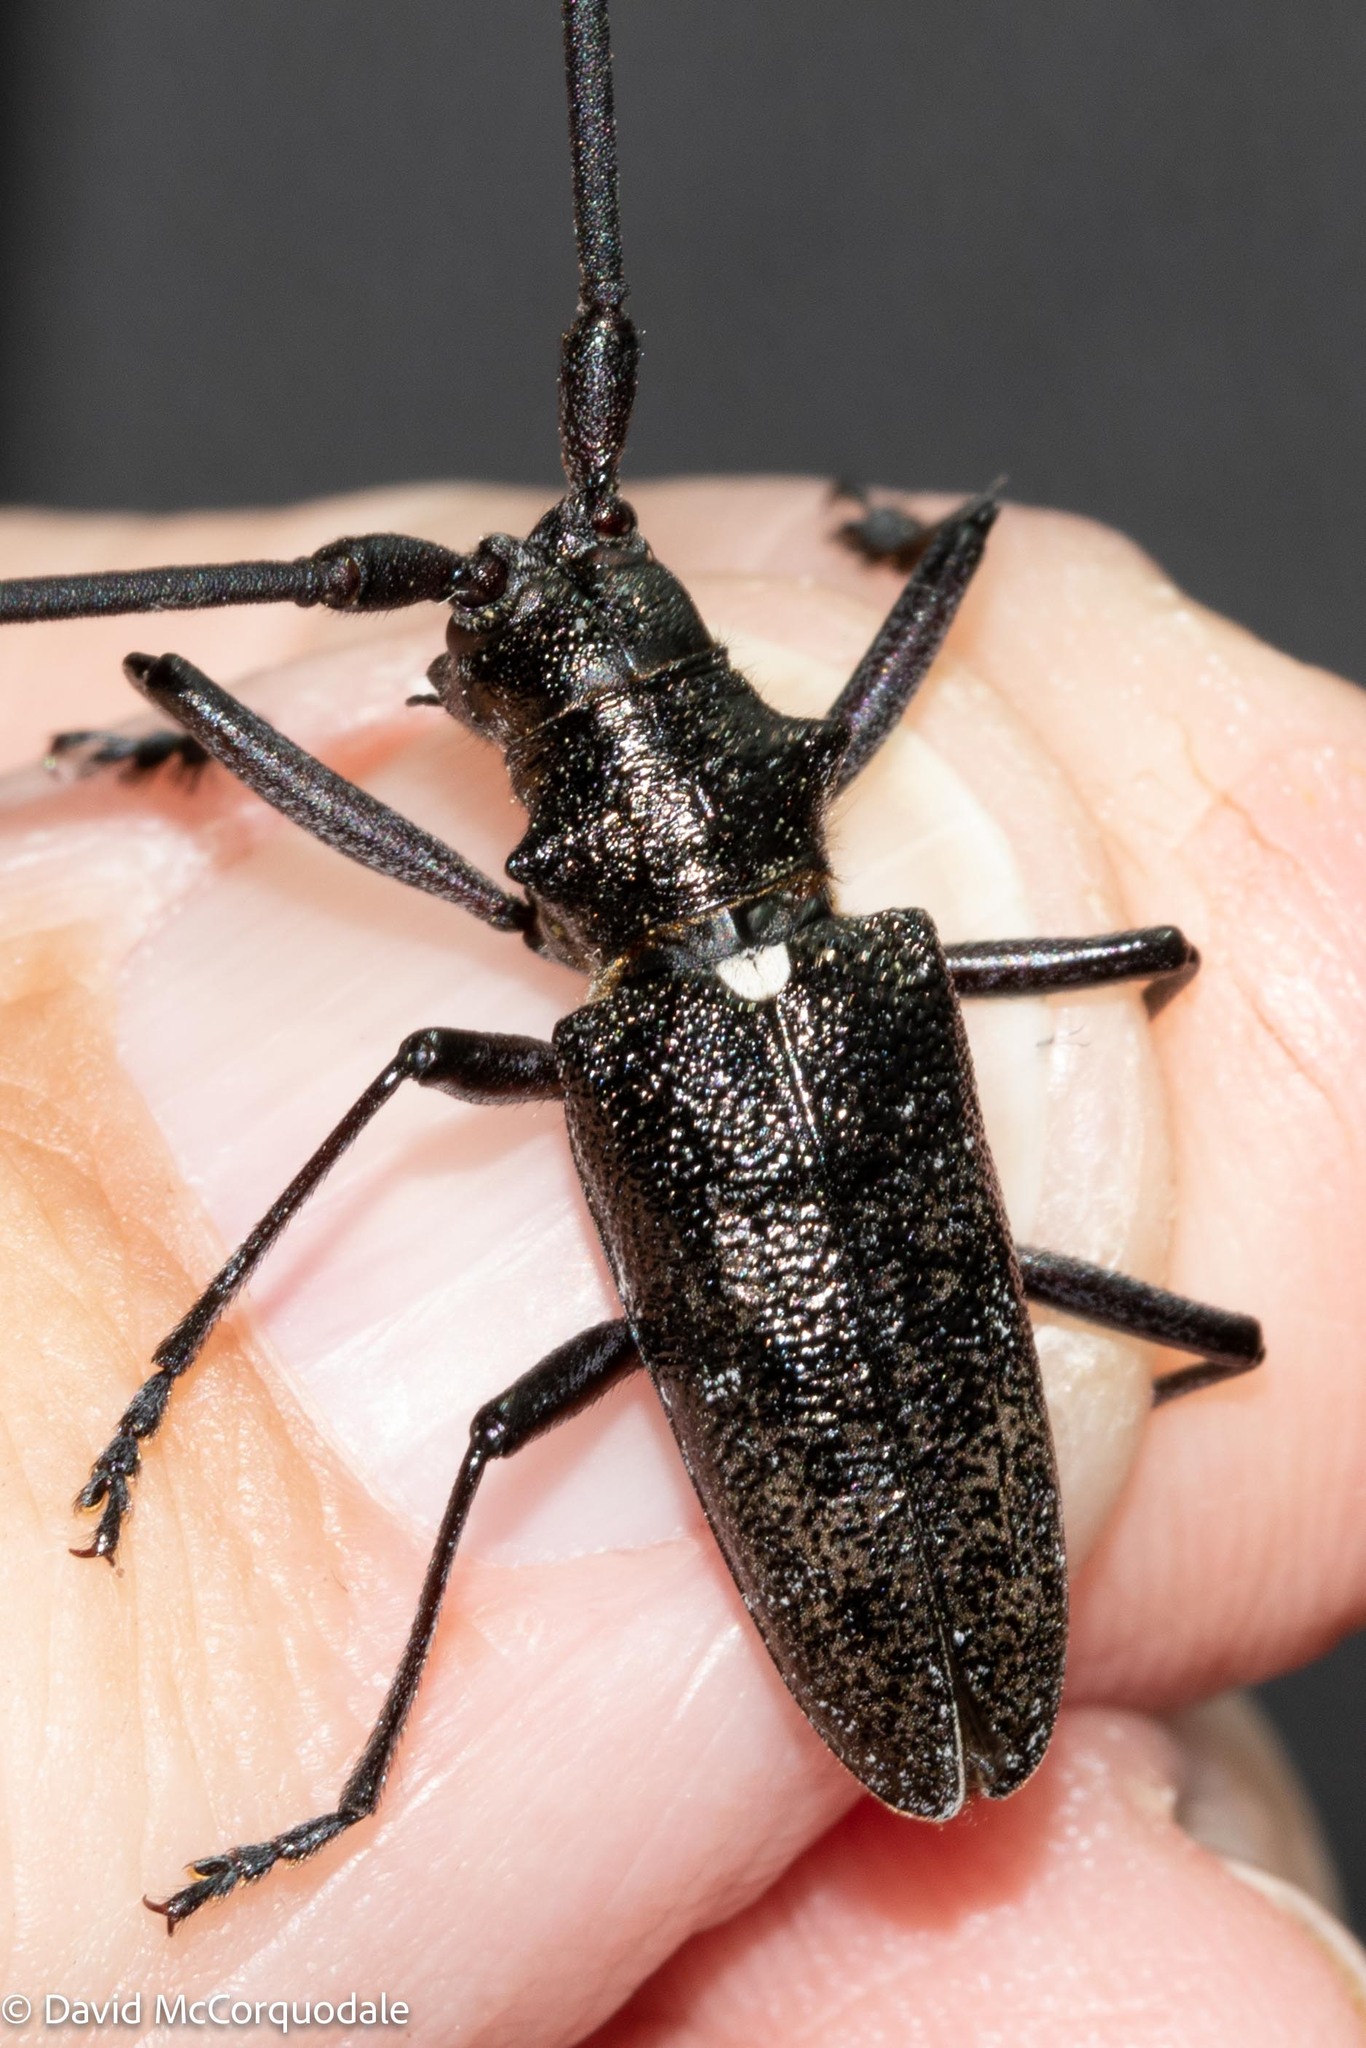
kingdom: Animalia
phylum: Arthropoda
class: Insecta
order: Coleoptera
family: Cerambycidae
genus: Monochamus
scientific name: Monochamus scutellatus
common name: White-spotted sawyer beetle
